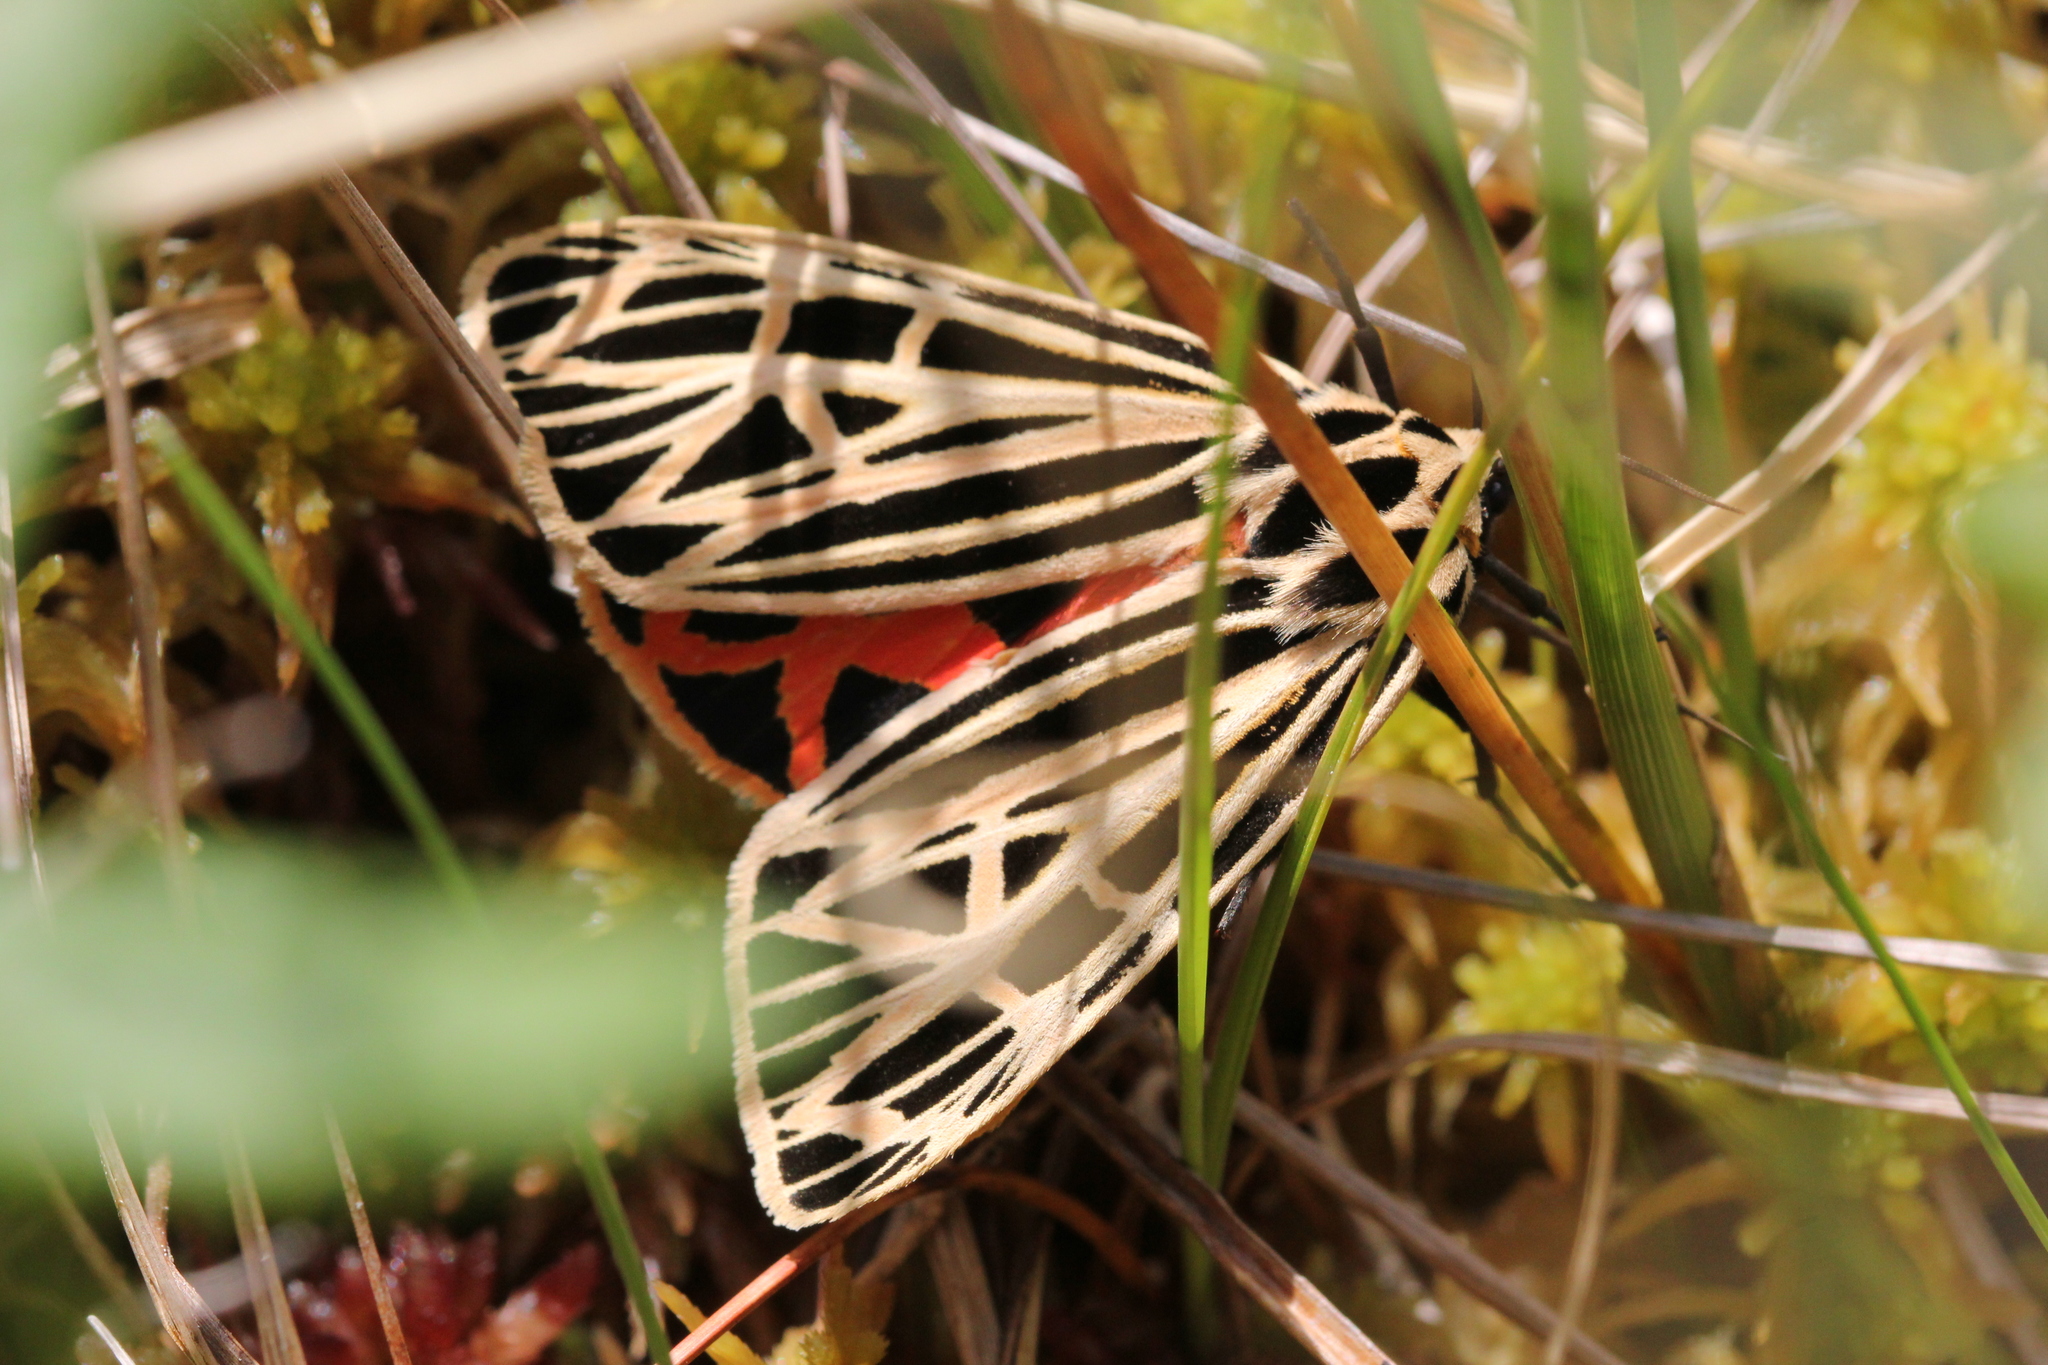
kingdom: Animalia
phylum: Arthropoda
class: Insecta
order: Lepidoptera
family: Erebidae
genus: Grammia
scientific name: Grammia virgo
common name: Virgin tiger moth
